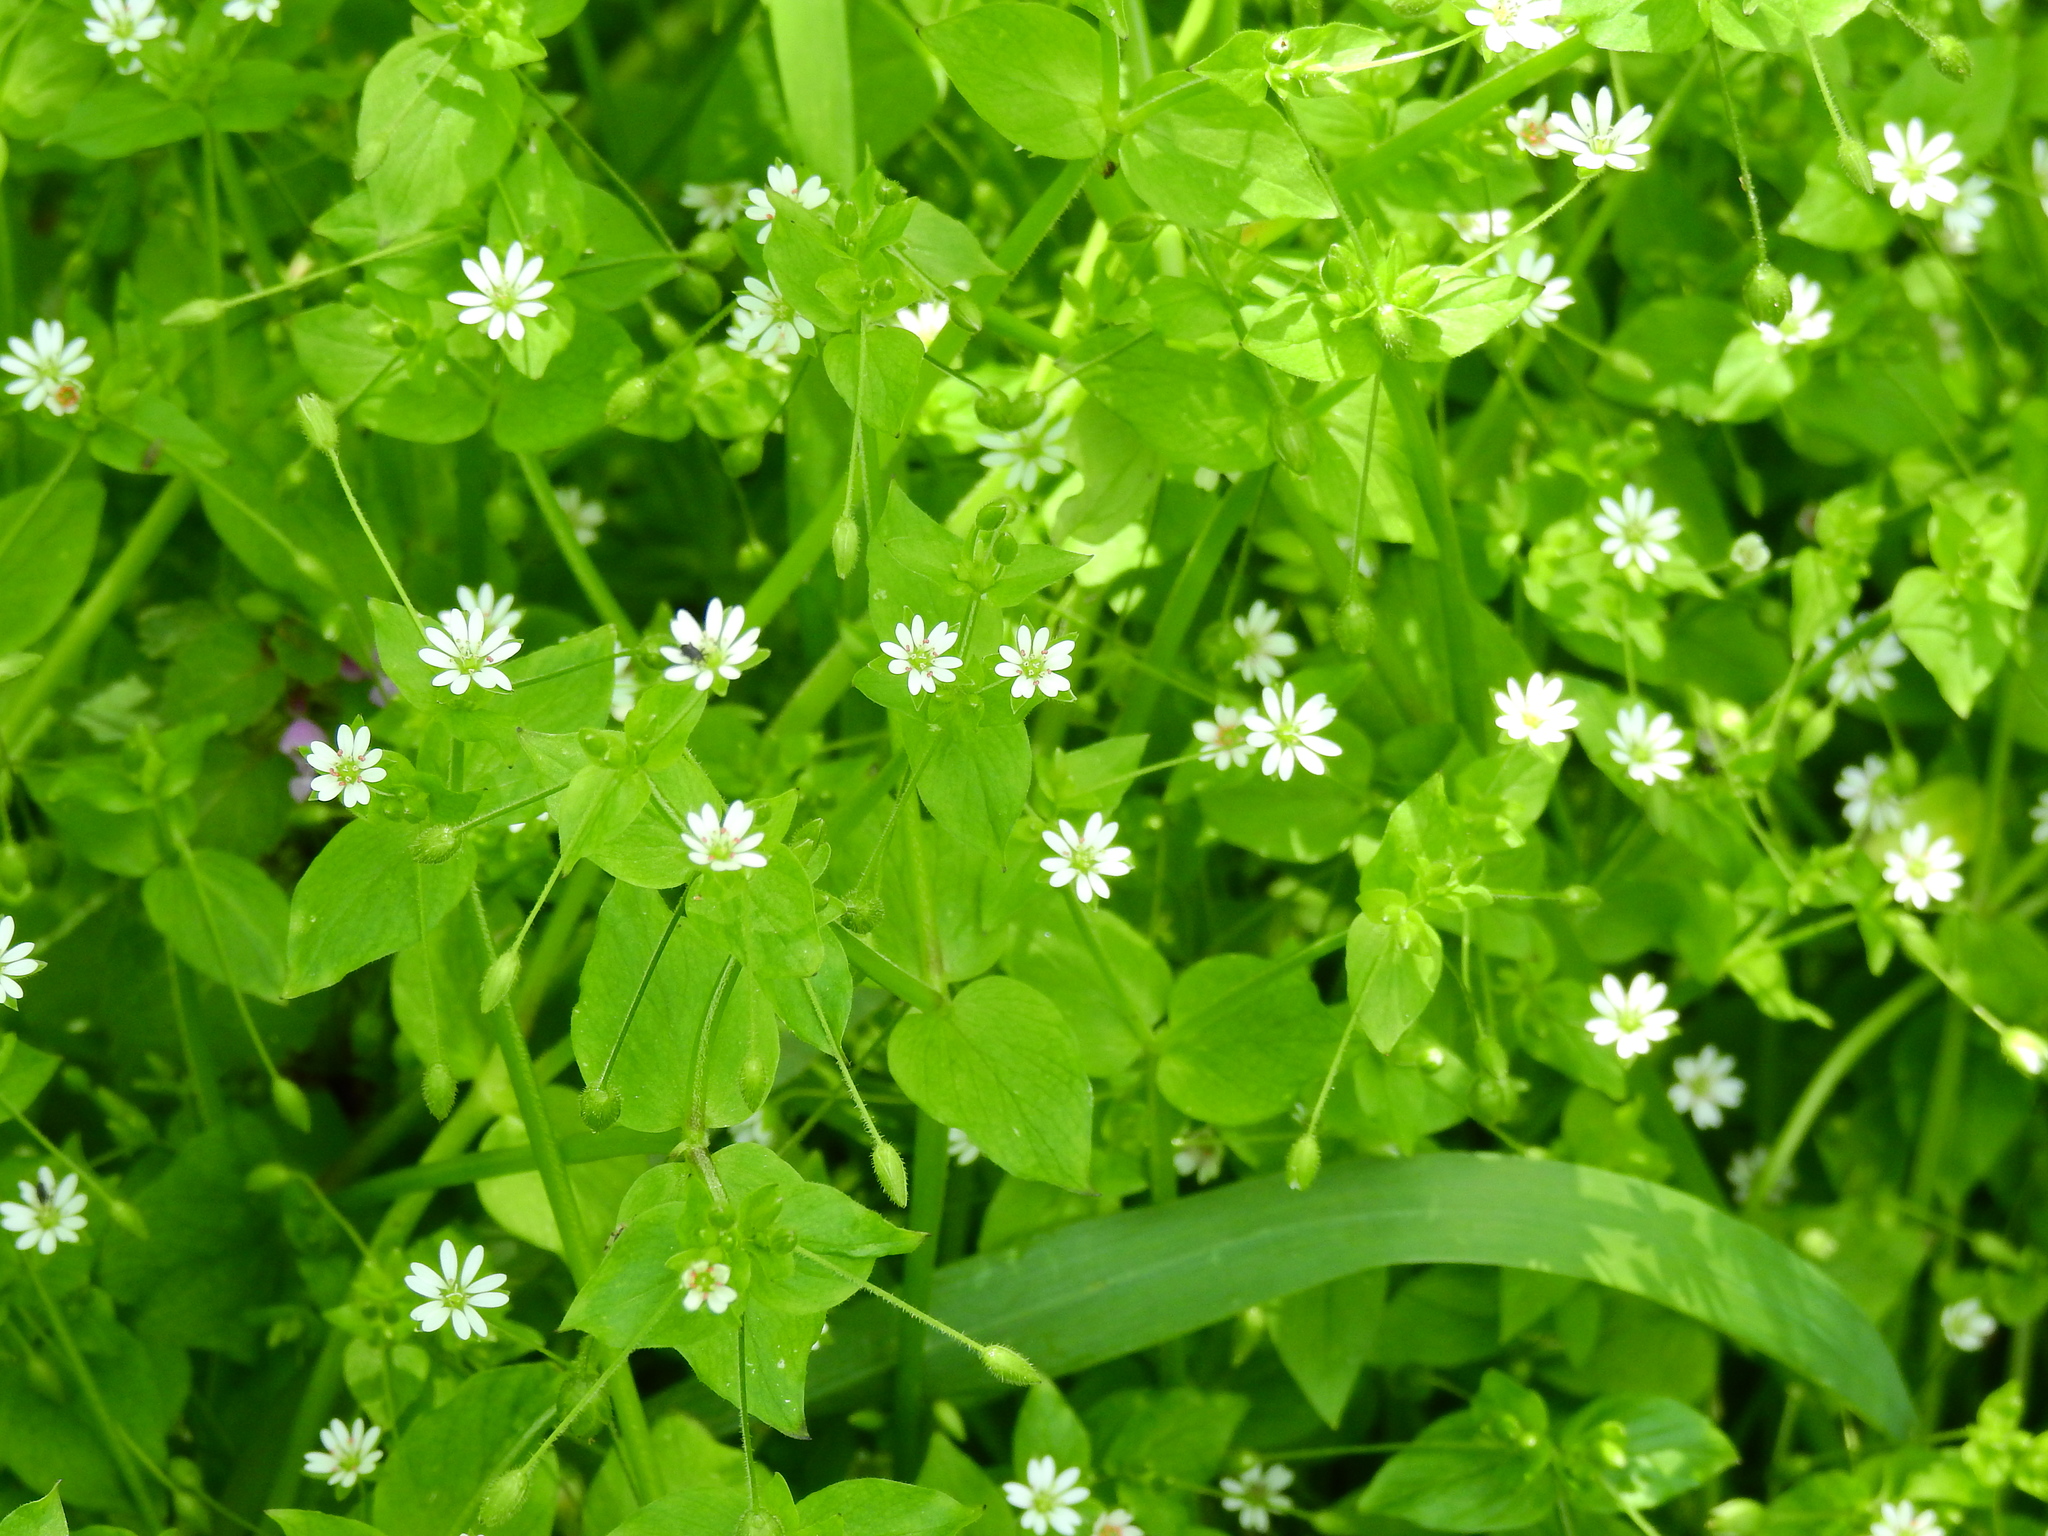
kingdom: Plantae
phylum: Tracheophyta
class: Magnoliopsida
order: Caryophyllales
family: Caryophyllaceae
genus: Stellaria
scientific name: Stellaria media
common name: Common chickweed
